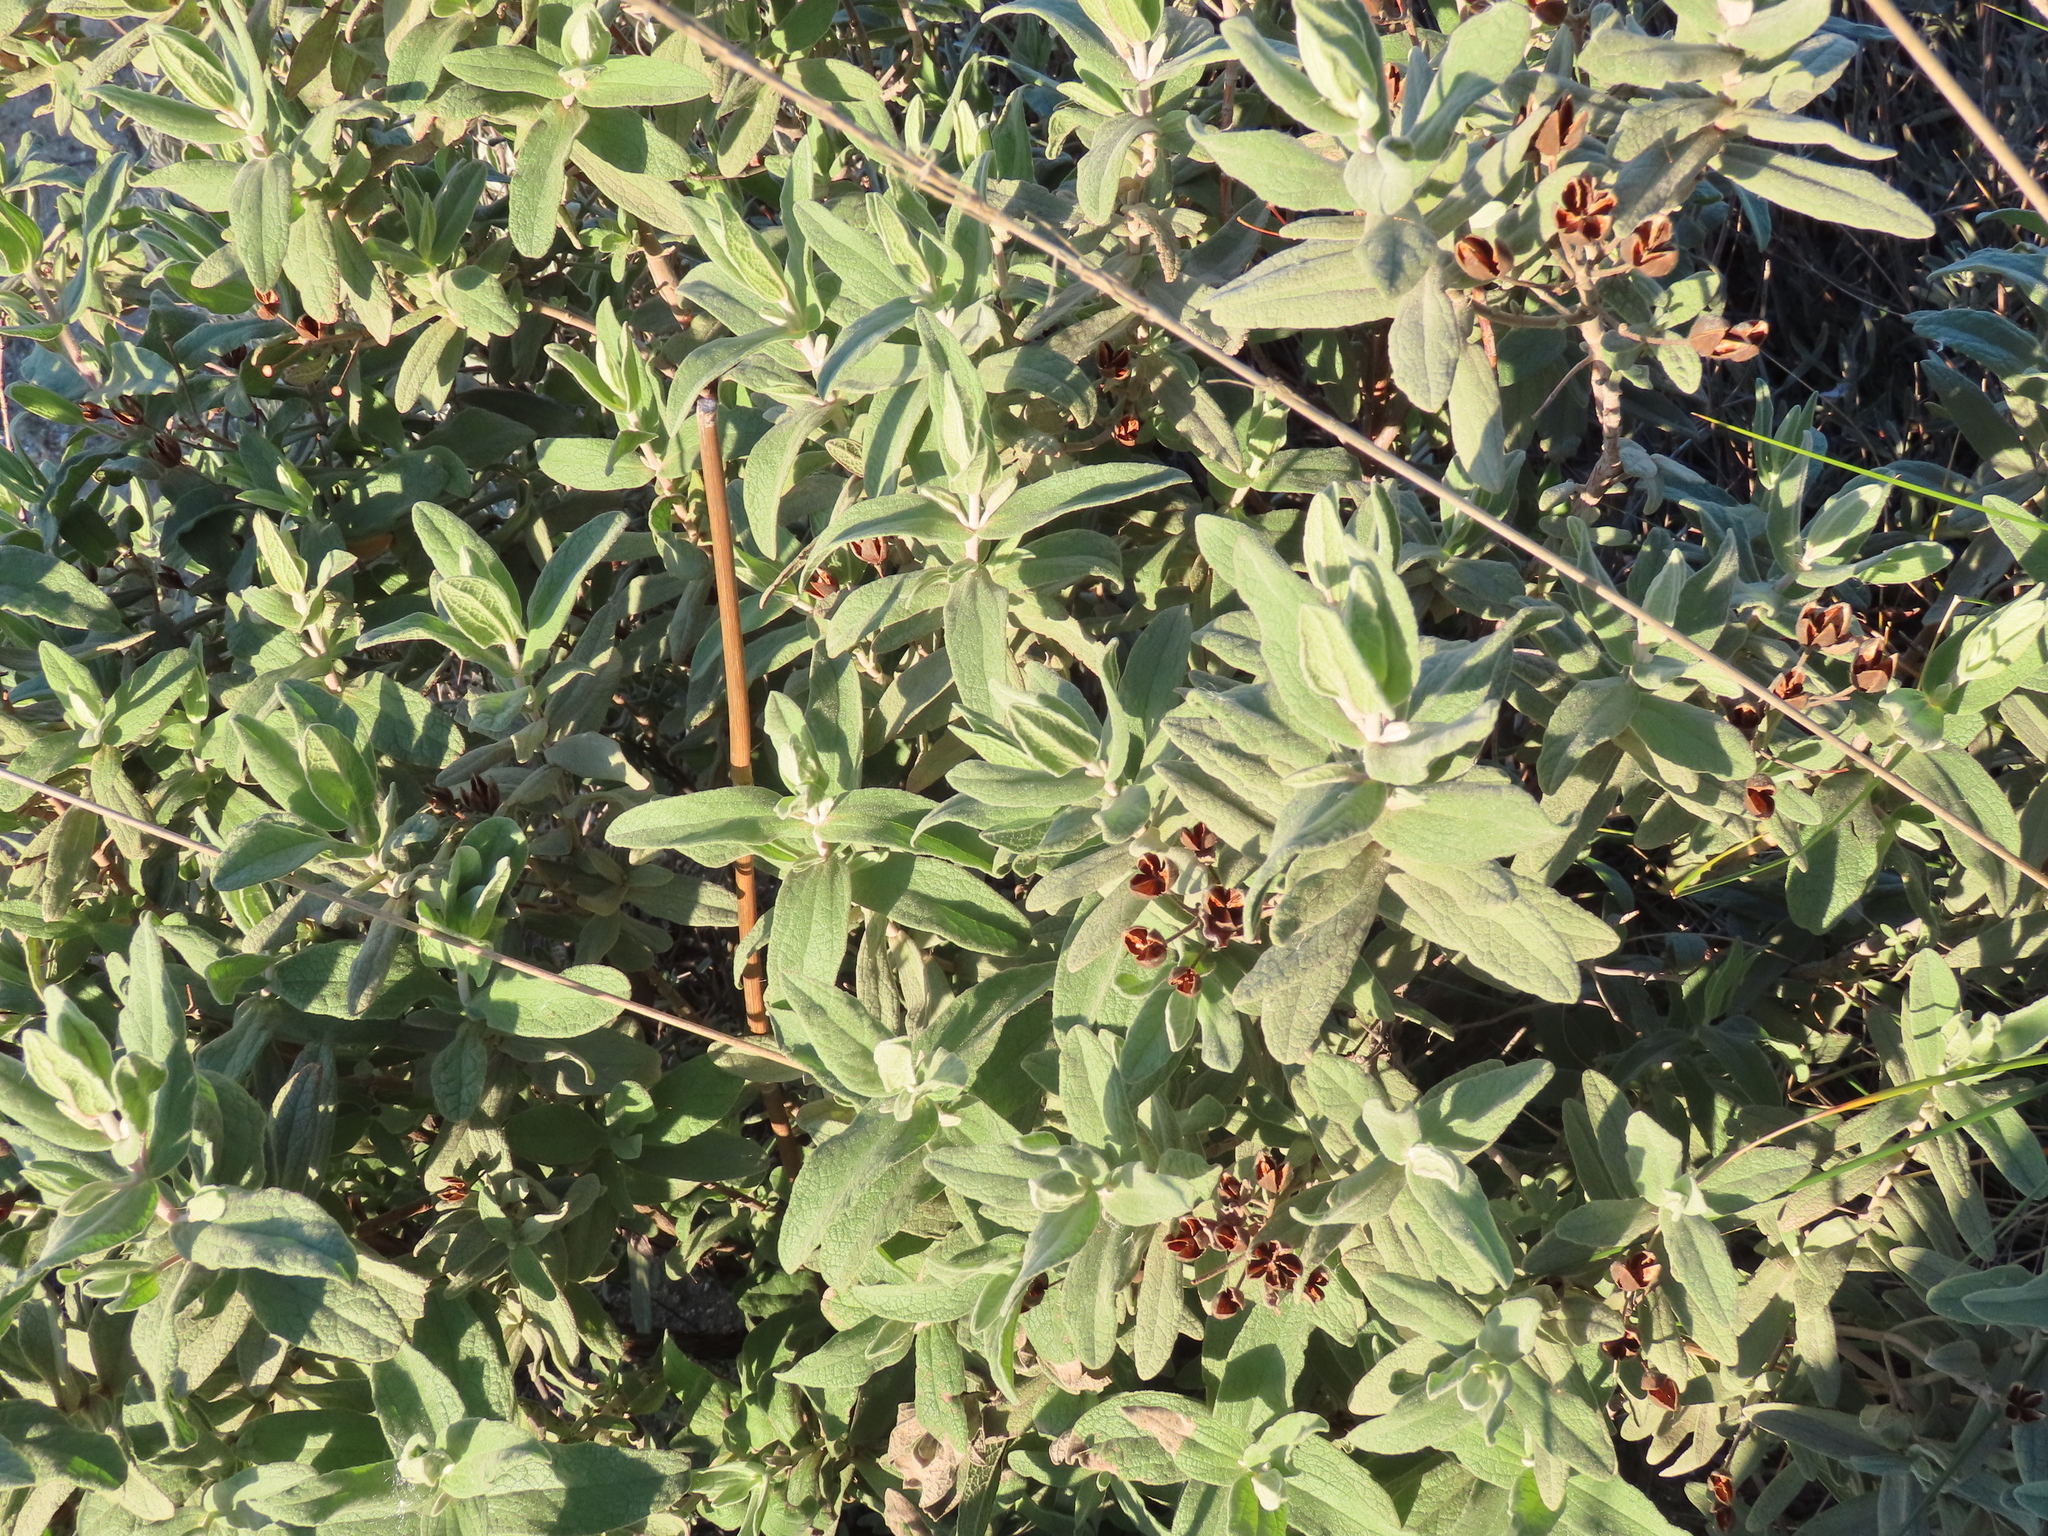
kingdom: Plantae
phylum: Tracheophyta
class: Magnoliopsida
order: Malvales
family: Cistaceae
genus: Cistus
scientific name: Cistus albidus
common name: White-leaf rock-rose
